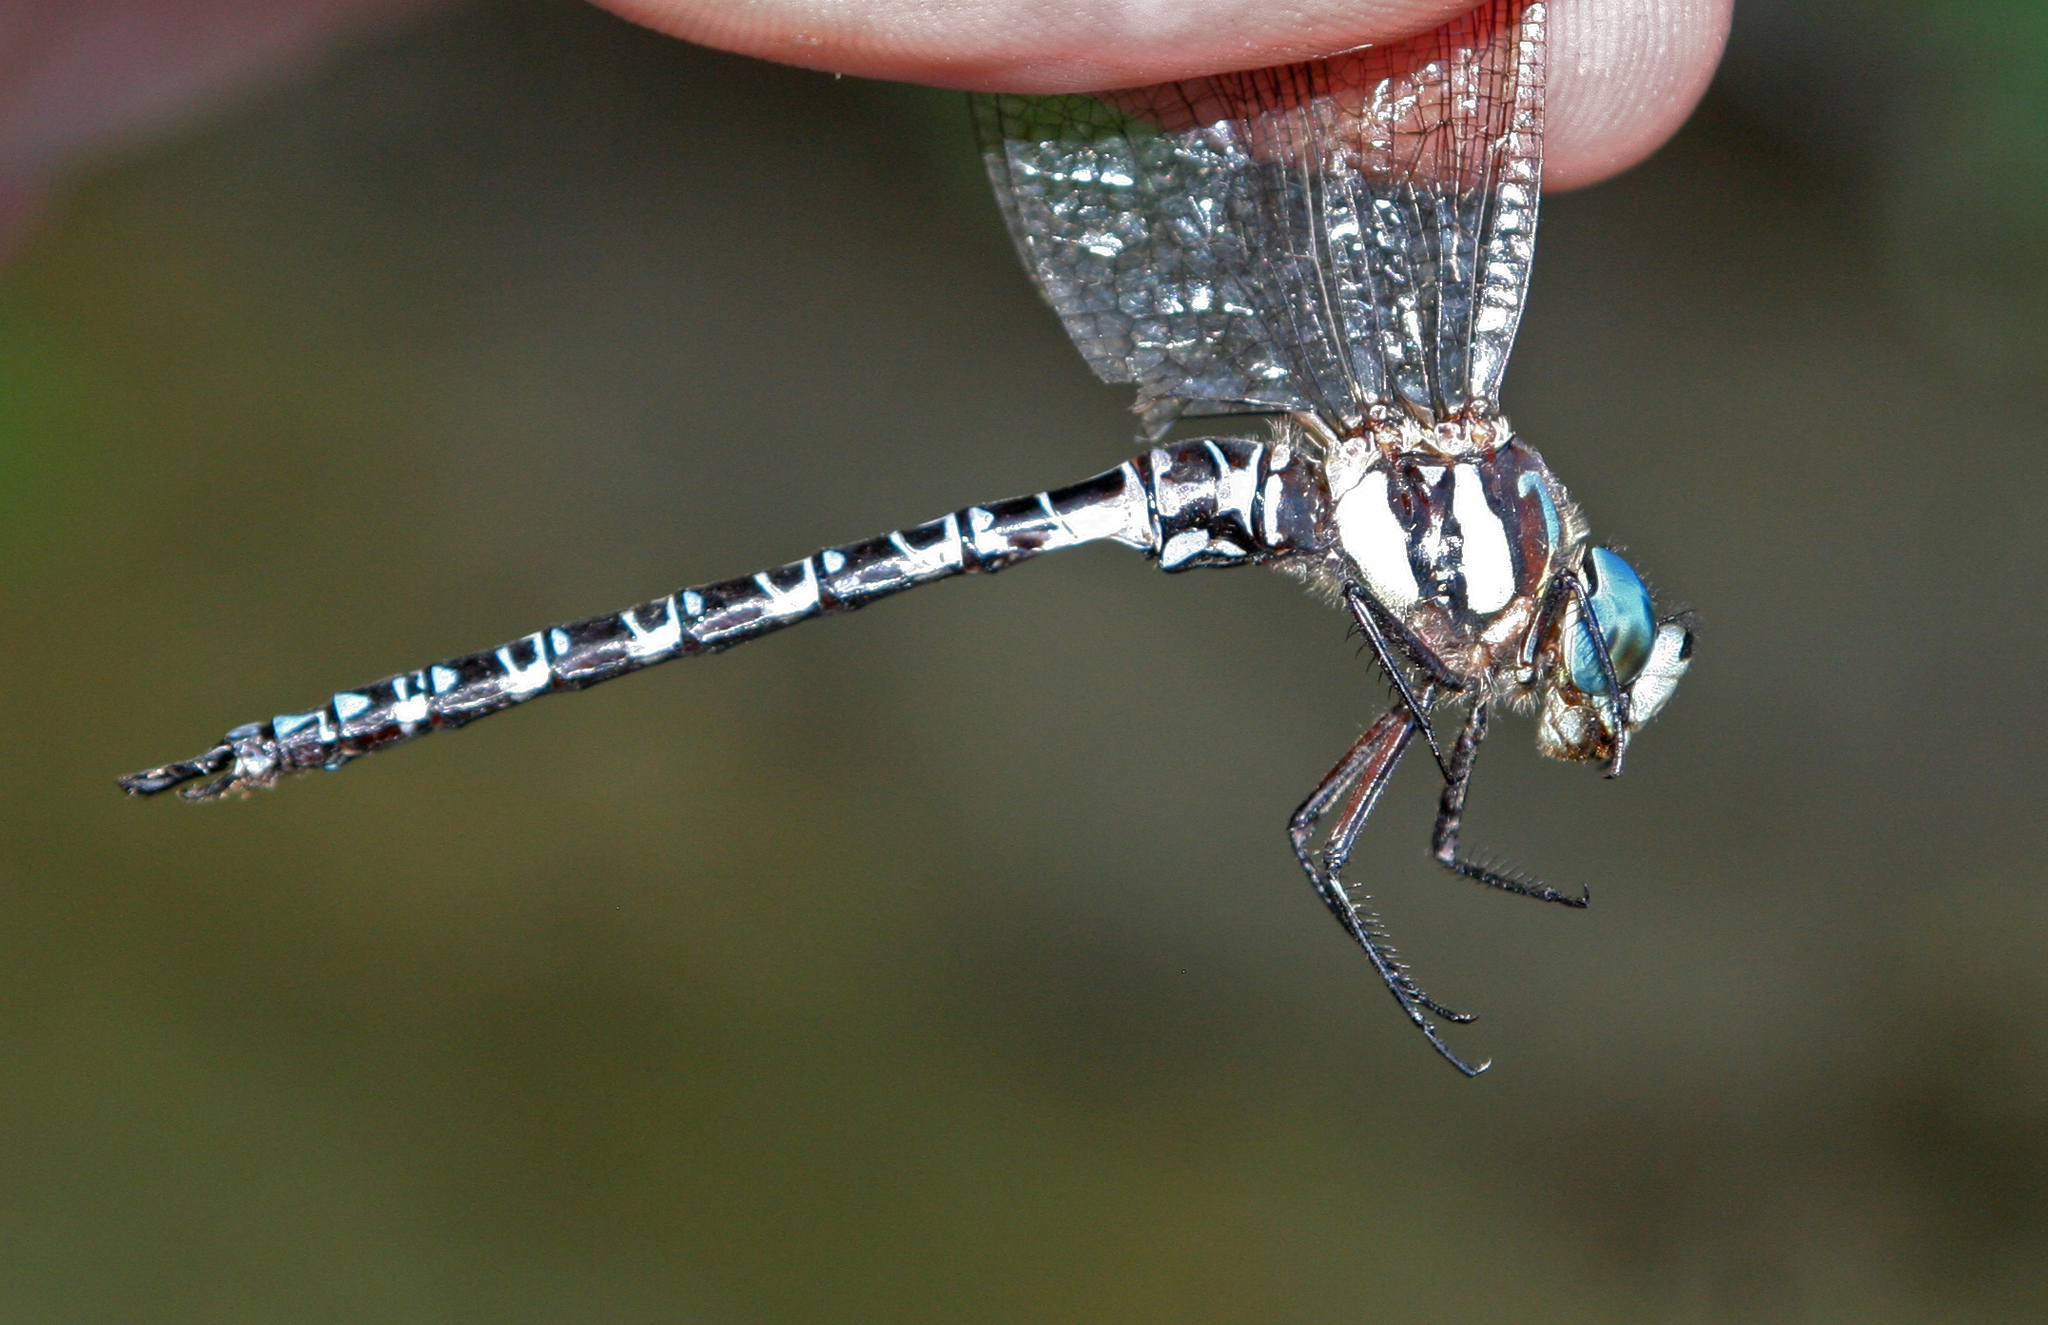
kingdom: Animalia
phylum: Arthropoda
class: Insecta
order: Odonata
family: Aeshnidae
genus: Caliaeschna
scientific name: Caliaeschna microstigma
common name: Eastern spectre
